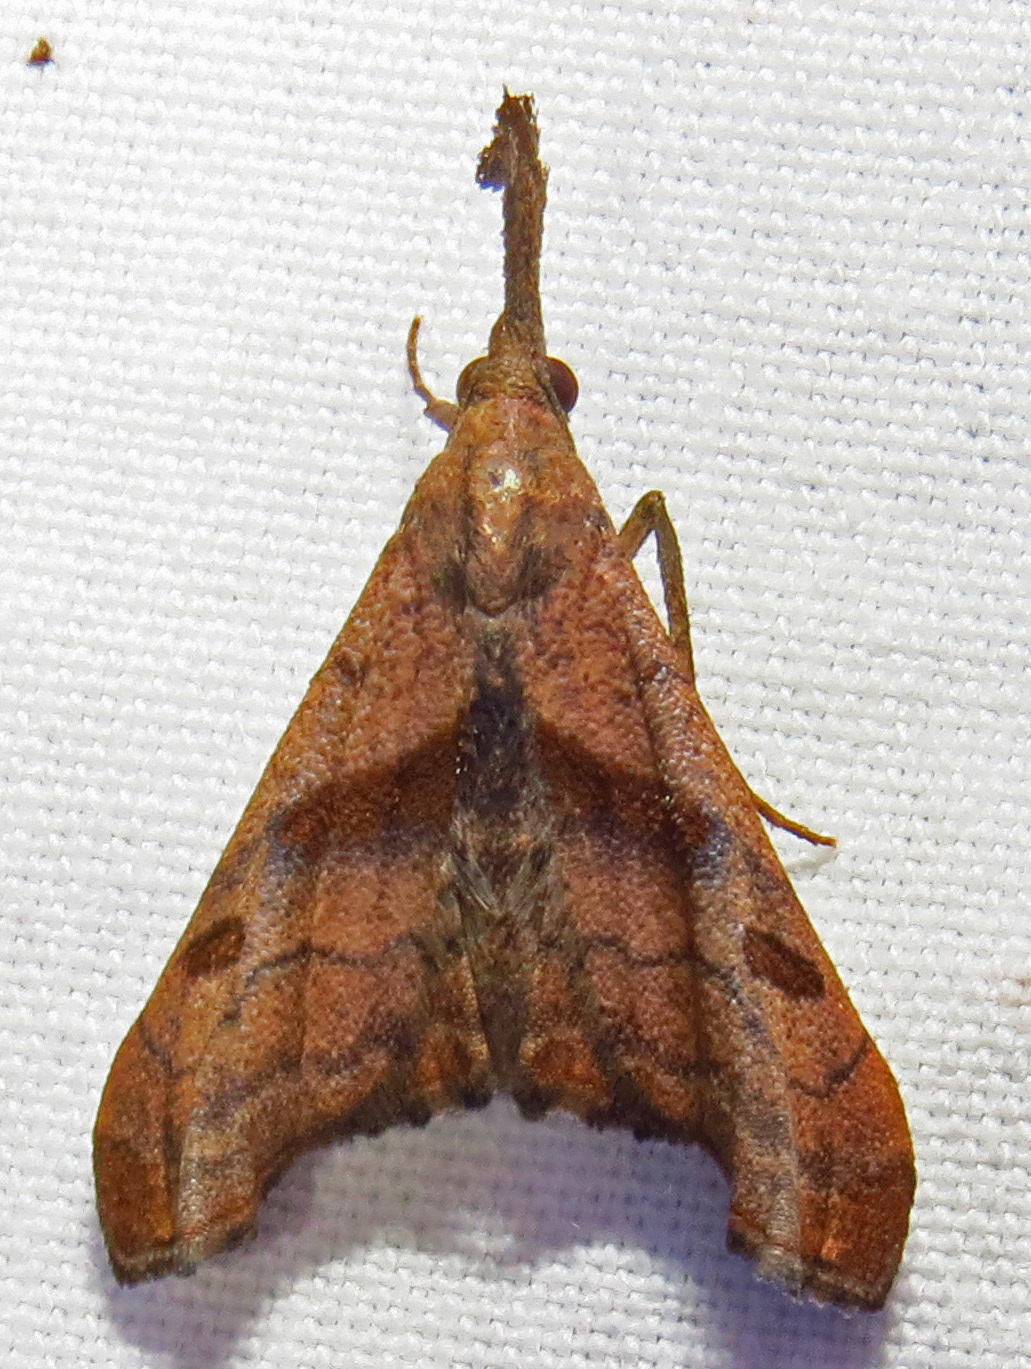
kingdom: Animalia
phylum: Arthropoda
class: Insecta
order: Lepidoptera
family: Erebidae
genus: Palthis
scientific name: Palthis angulalis
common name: Dark-spotted palthis moth
